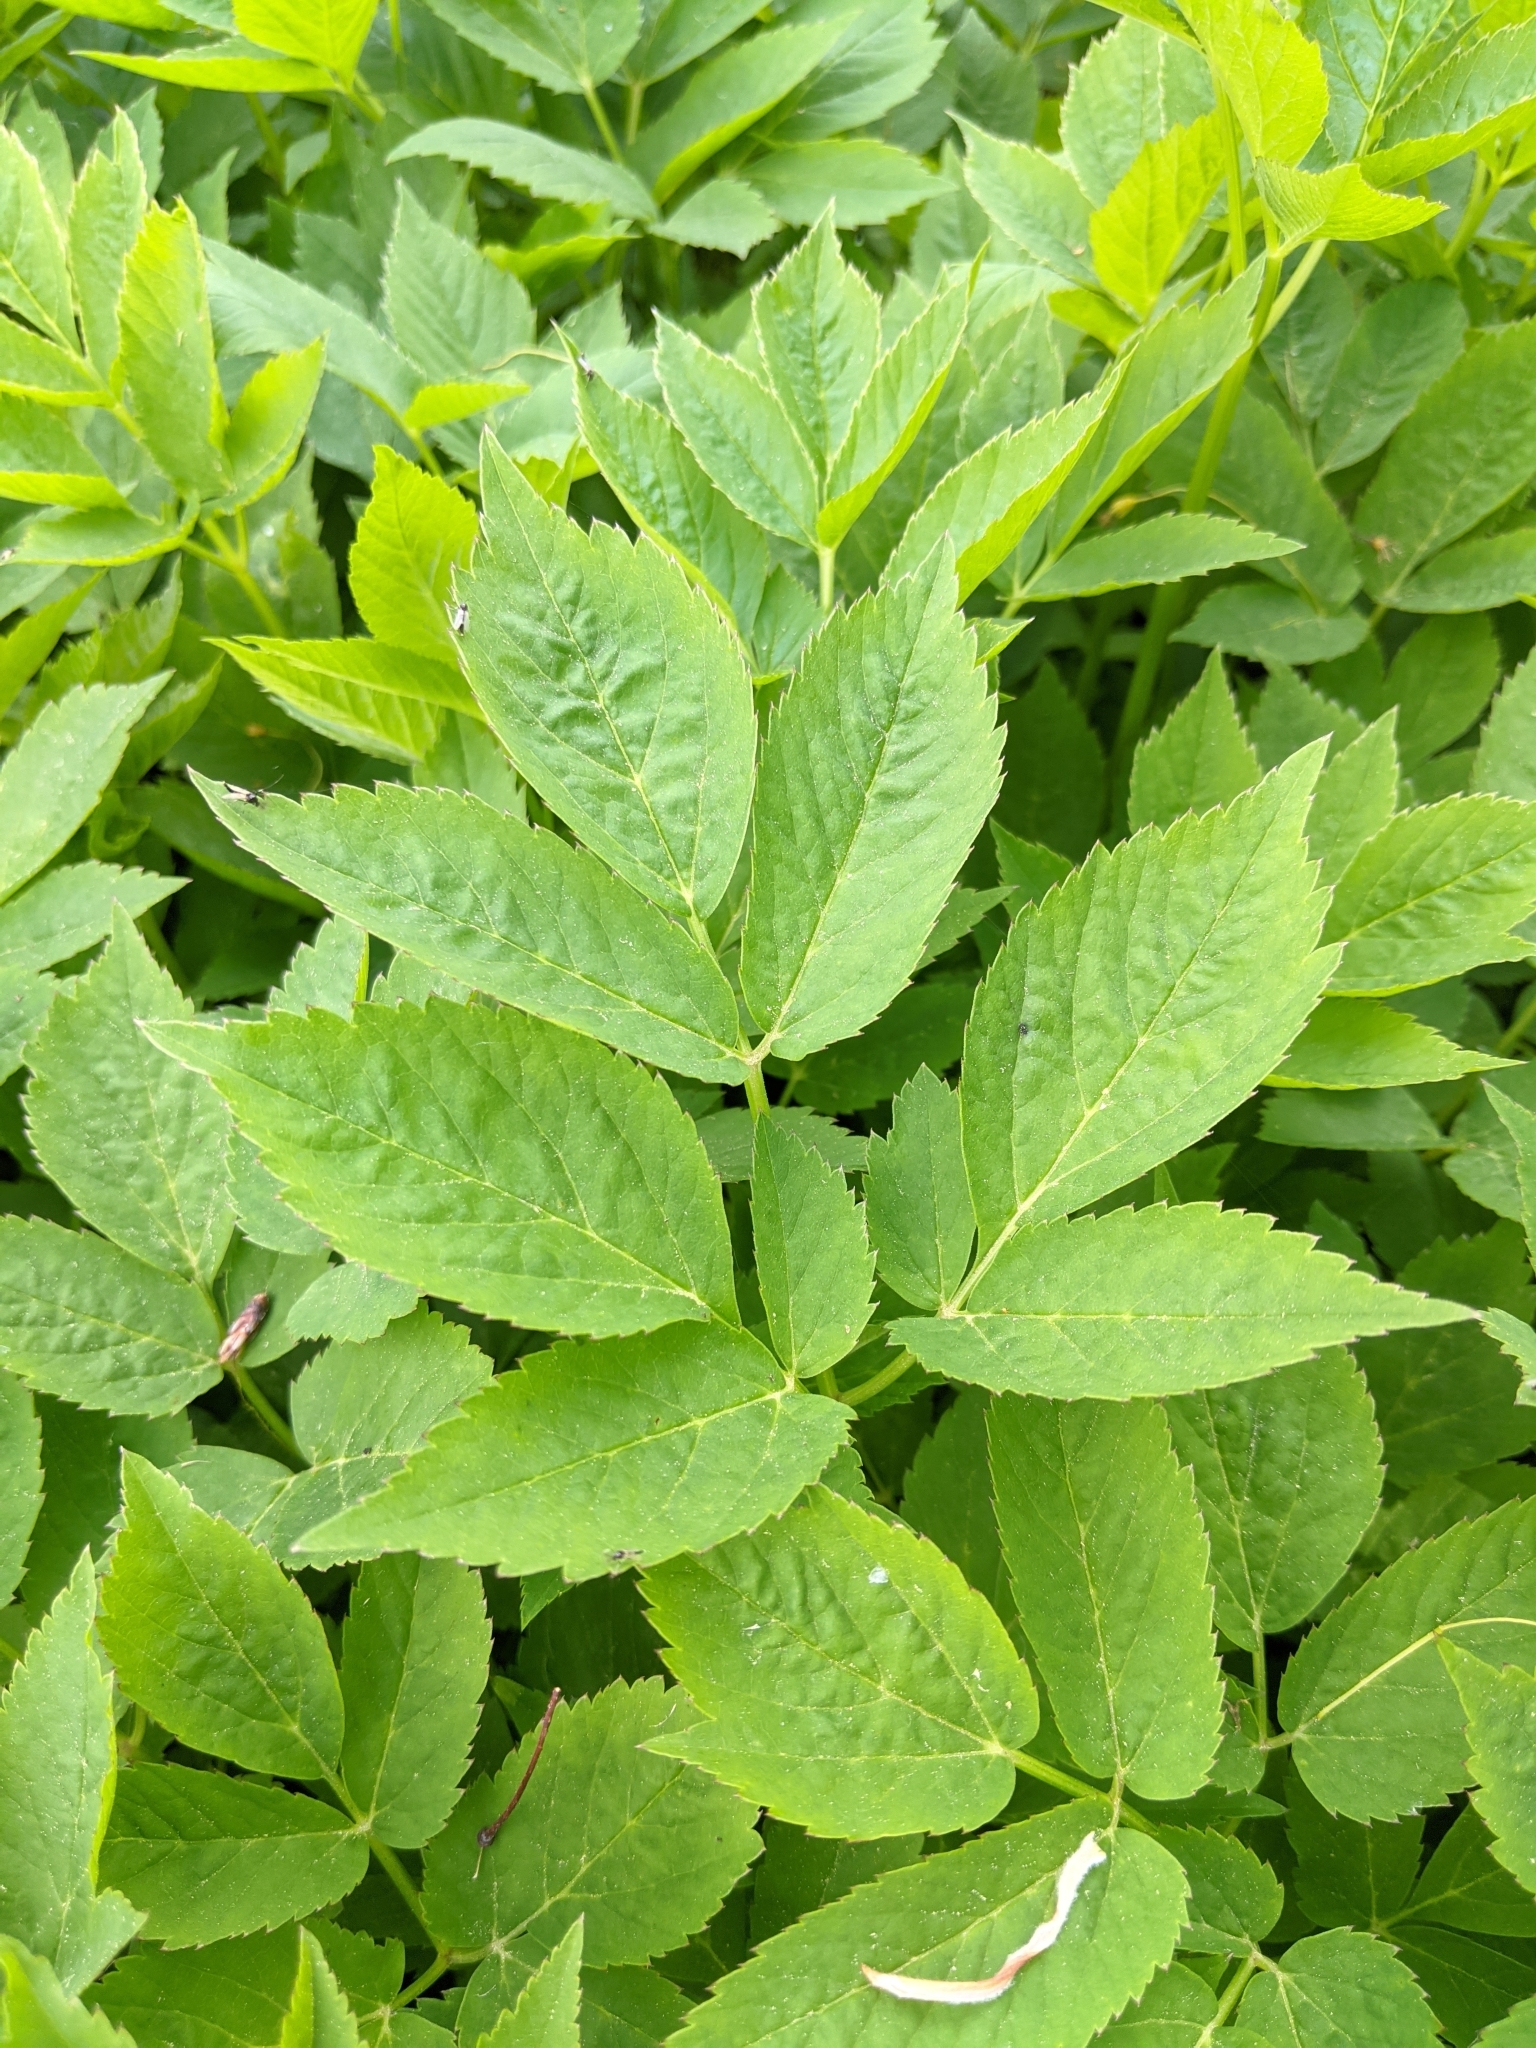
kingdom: Plantae
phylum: Tracheophyta
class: Magnoliopsida
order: Apiales
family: Apiaceae
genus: Aegopodium
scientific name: Aegopodium podagraria
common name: Ground-elder
